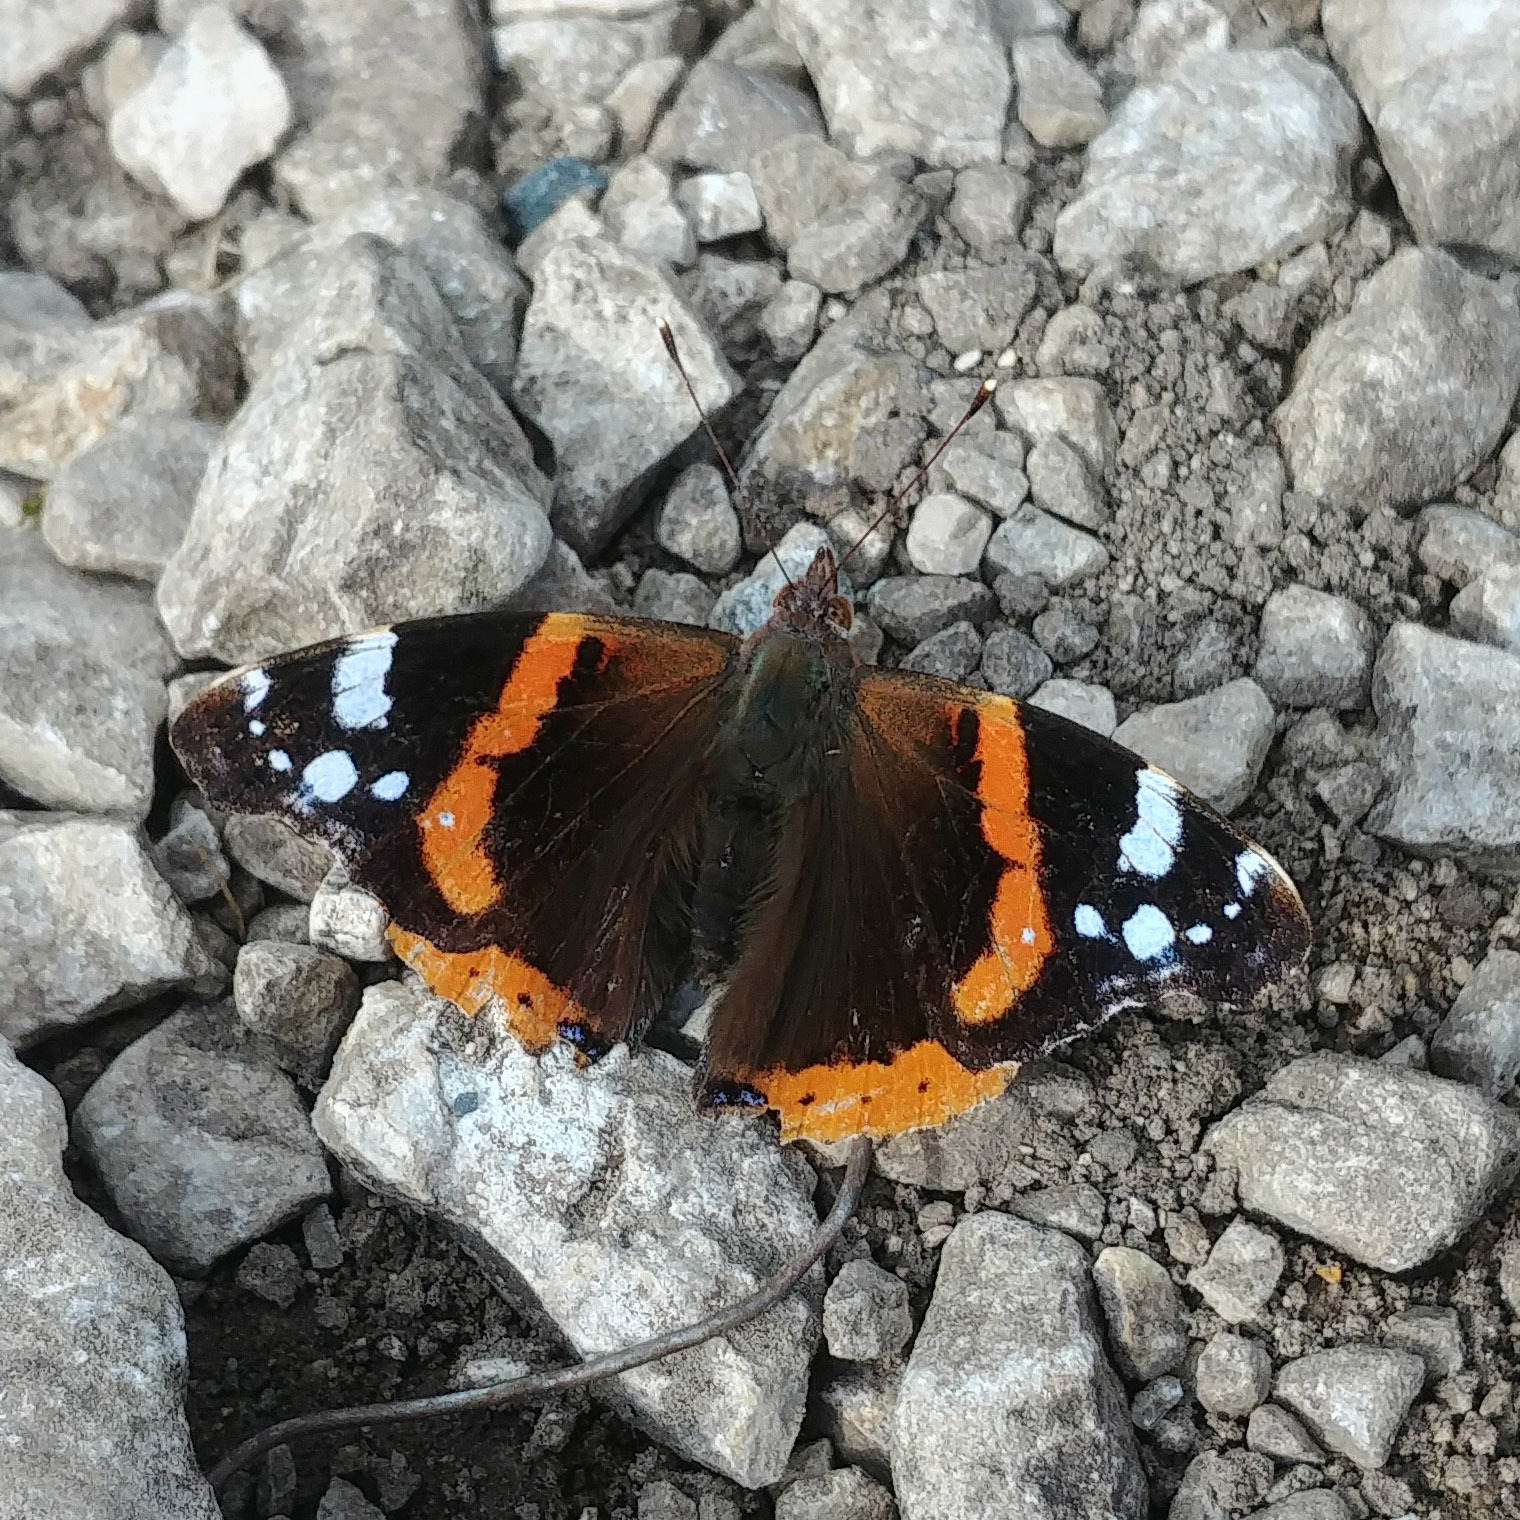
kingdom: Animalia
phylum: Arthropoda
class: Insecta
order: Lepidoptera
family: Nymphalidae
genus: Vanessa
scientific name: Vanessa atalanta
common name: Red admiral
